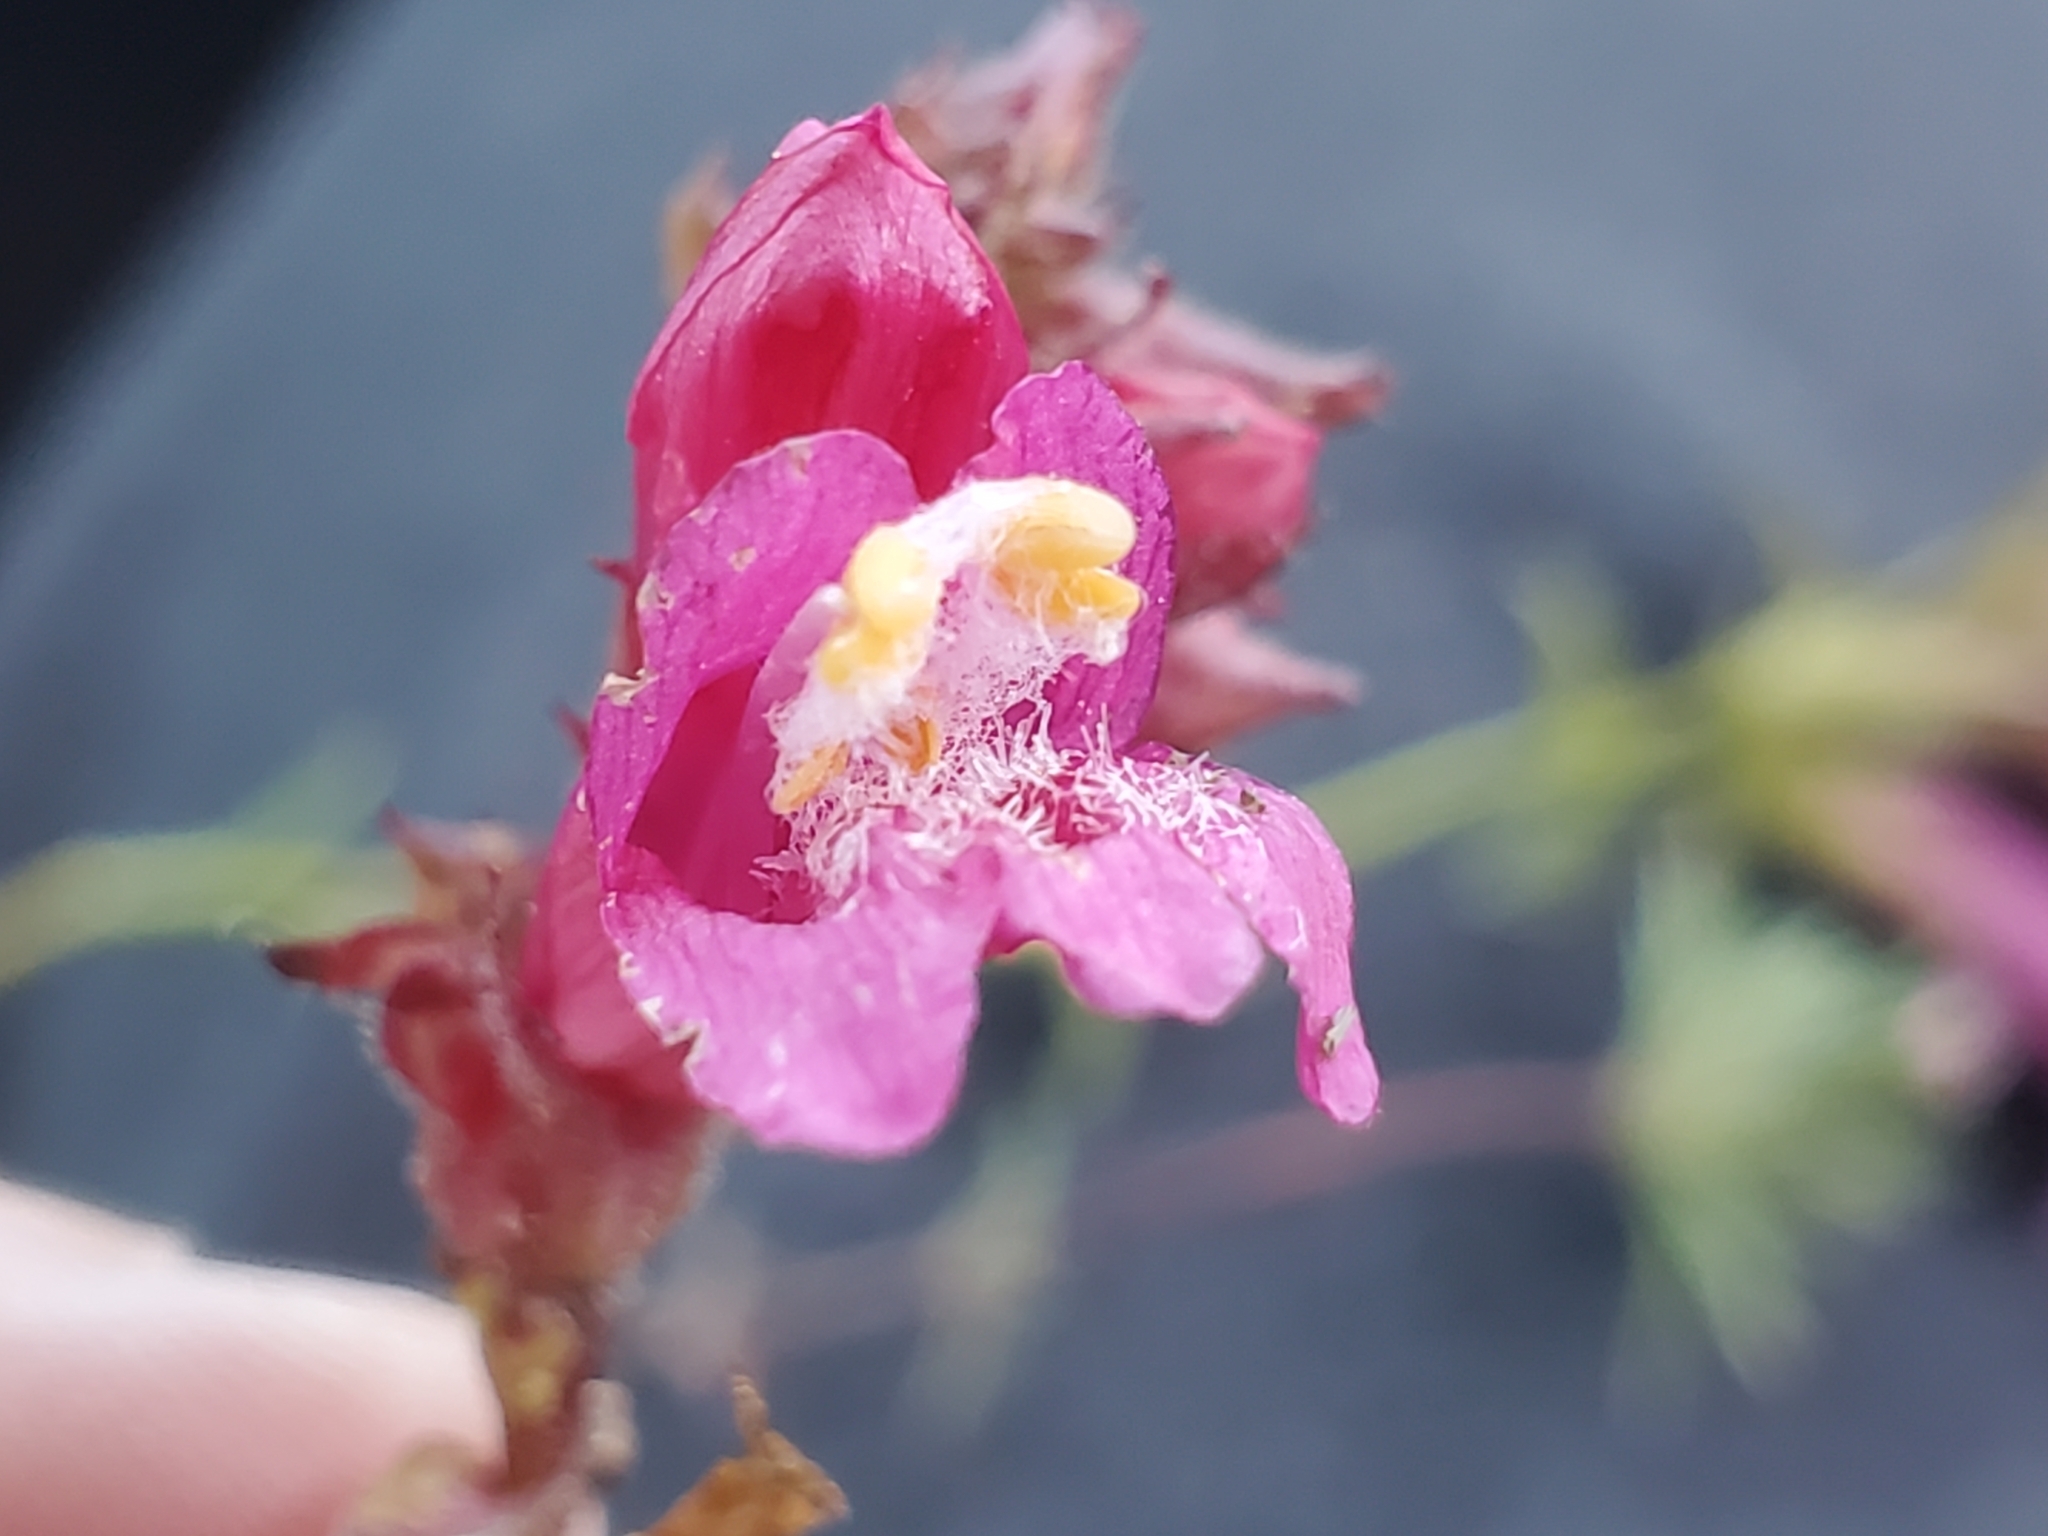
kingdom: Plantae
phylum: Tracheophyta
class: Magnoliopsida
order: Lamiales
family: Plantaginaceae
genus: Penstemon
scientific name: Penstemon newberryi
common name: Mountain-pride
